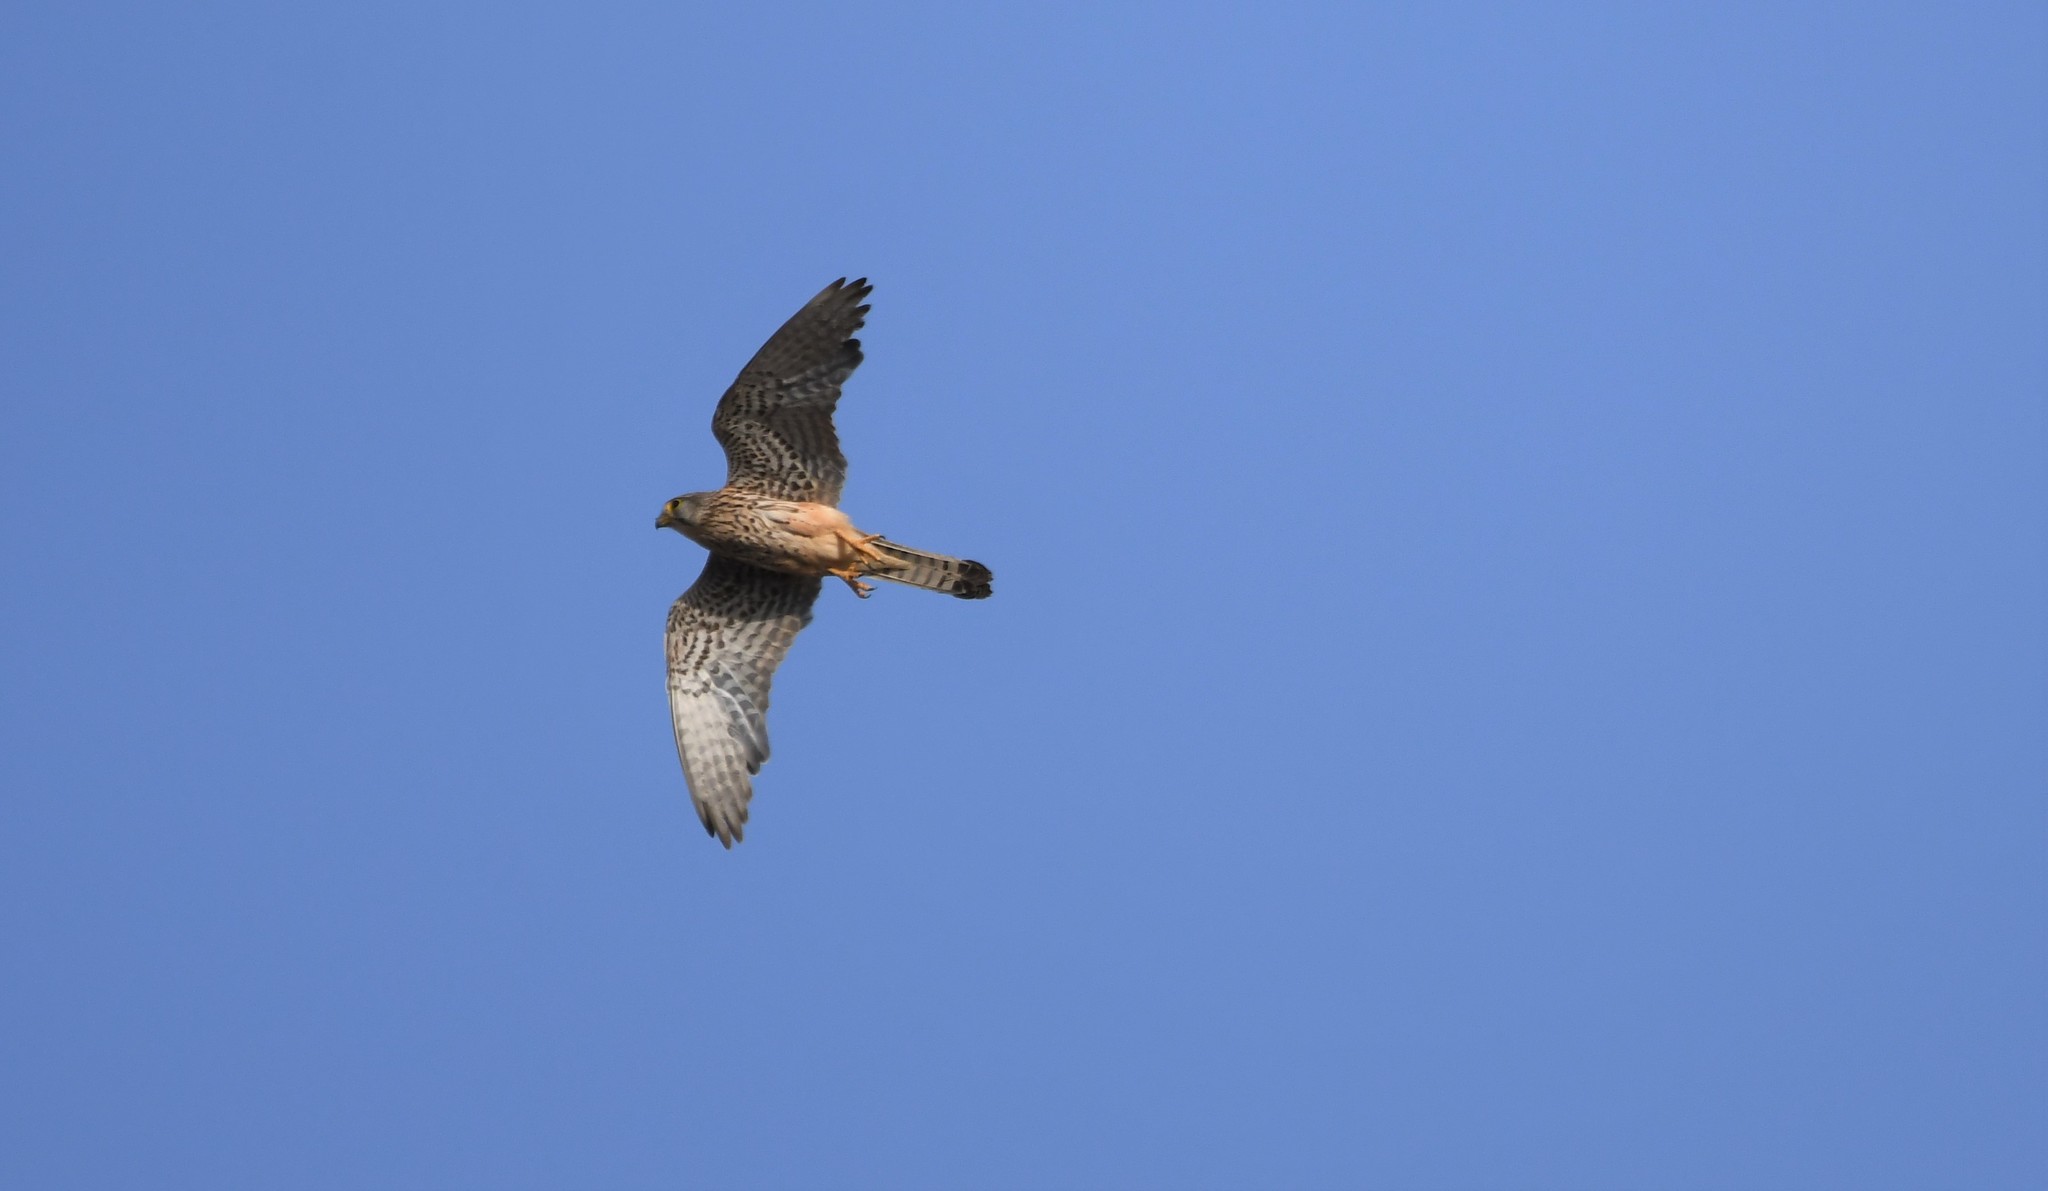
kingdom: Animalia
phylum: Chordata
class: Aves
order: Falconiformes
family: Falconidae
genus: Falco
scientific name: Falco tinnunculus
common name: Common kestrel
